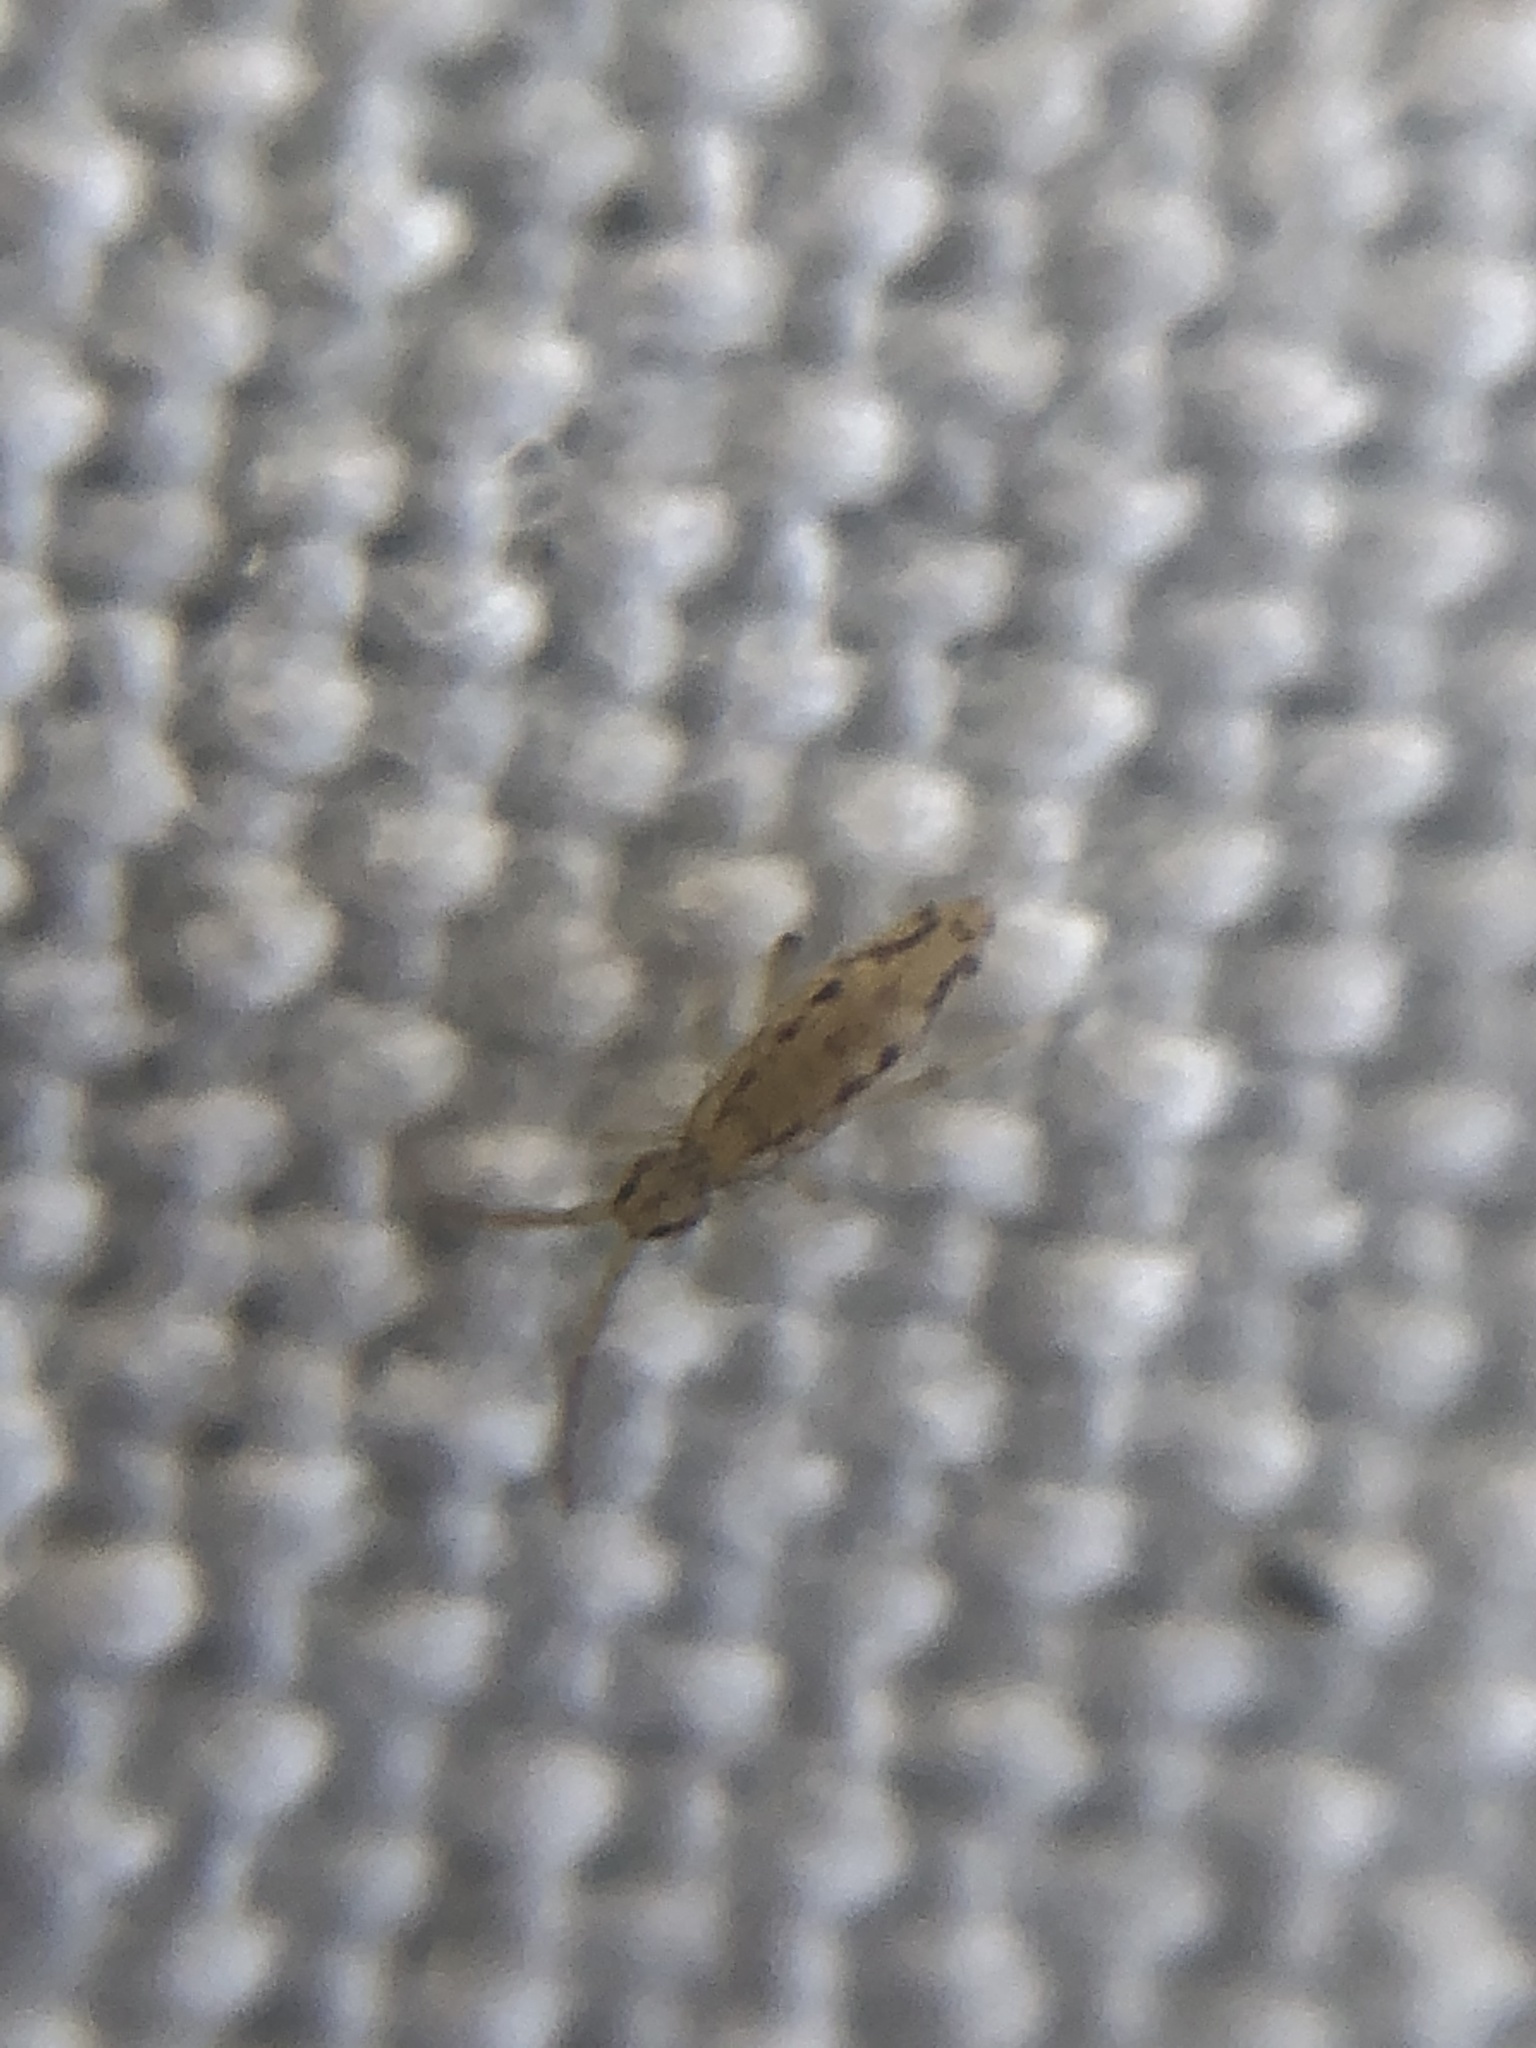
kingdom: Animalia
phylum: Arthropoda
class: Collembola
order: Entomobryomorpha
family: Entomobryidae
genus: Entomobrya
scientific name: Entomobrya katzi
